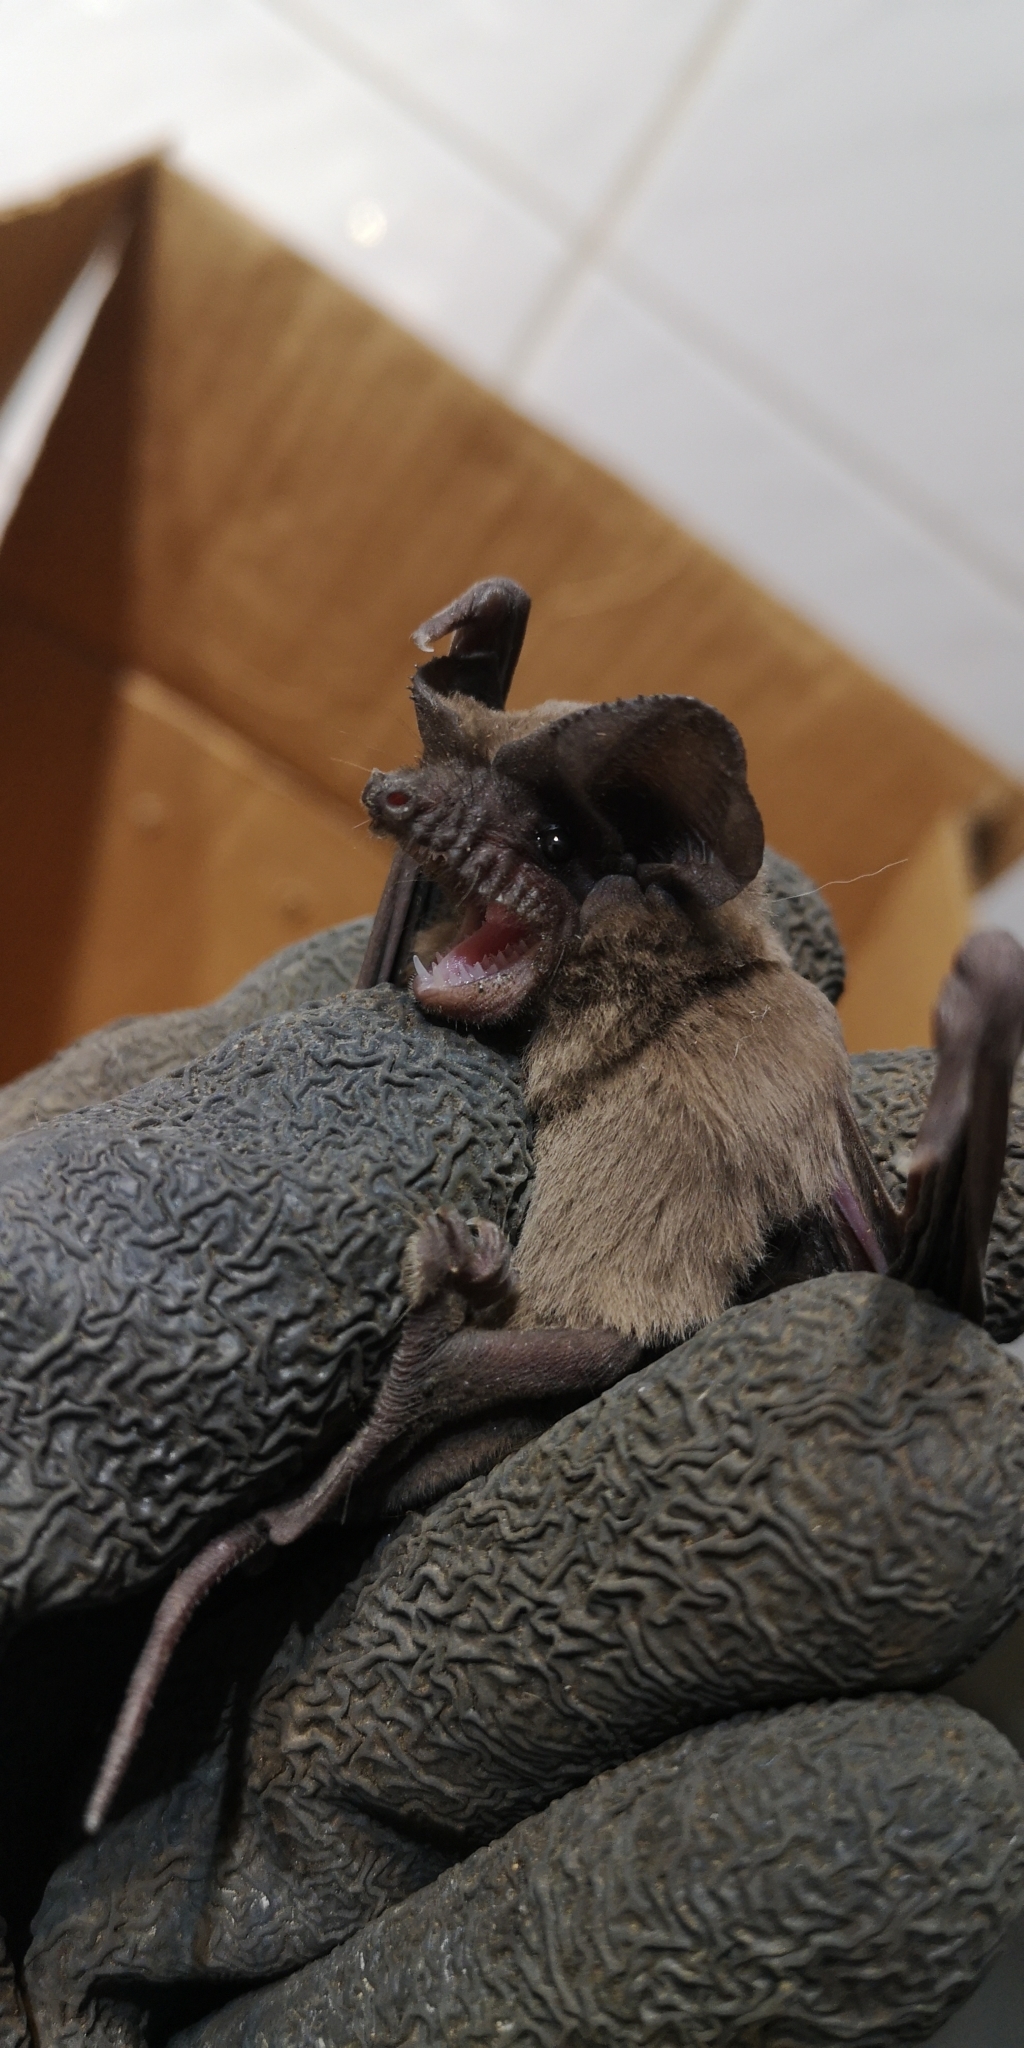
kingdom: Animalia
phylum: Chordata
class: Mammalia
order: Chiroptera
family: Molossidae
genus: Tadarida
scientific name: Tadarida brasiliensis
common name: Mexican free-tailed bat
